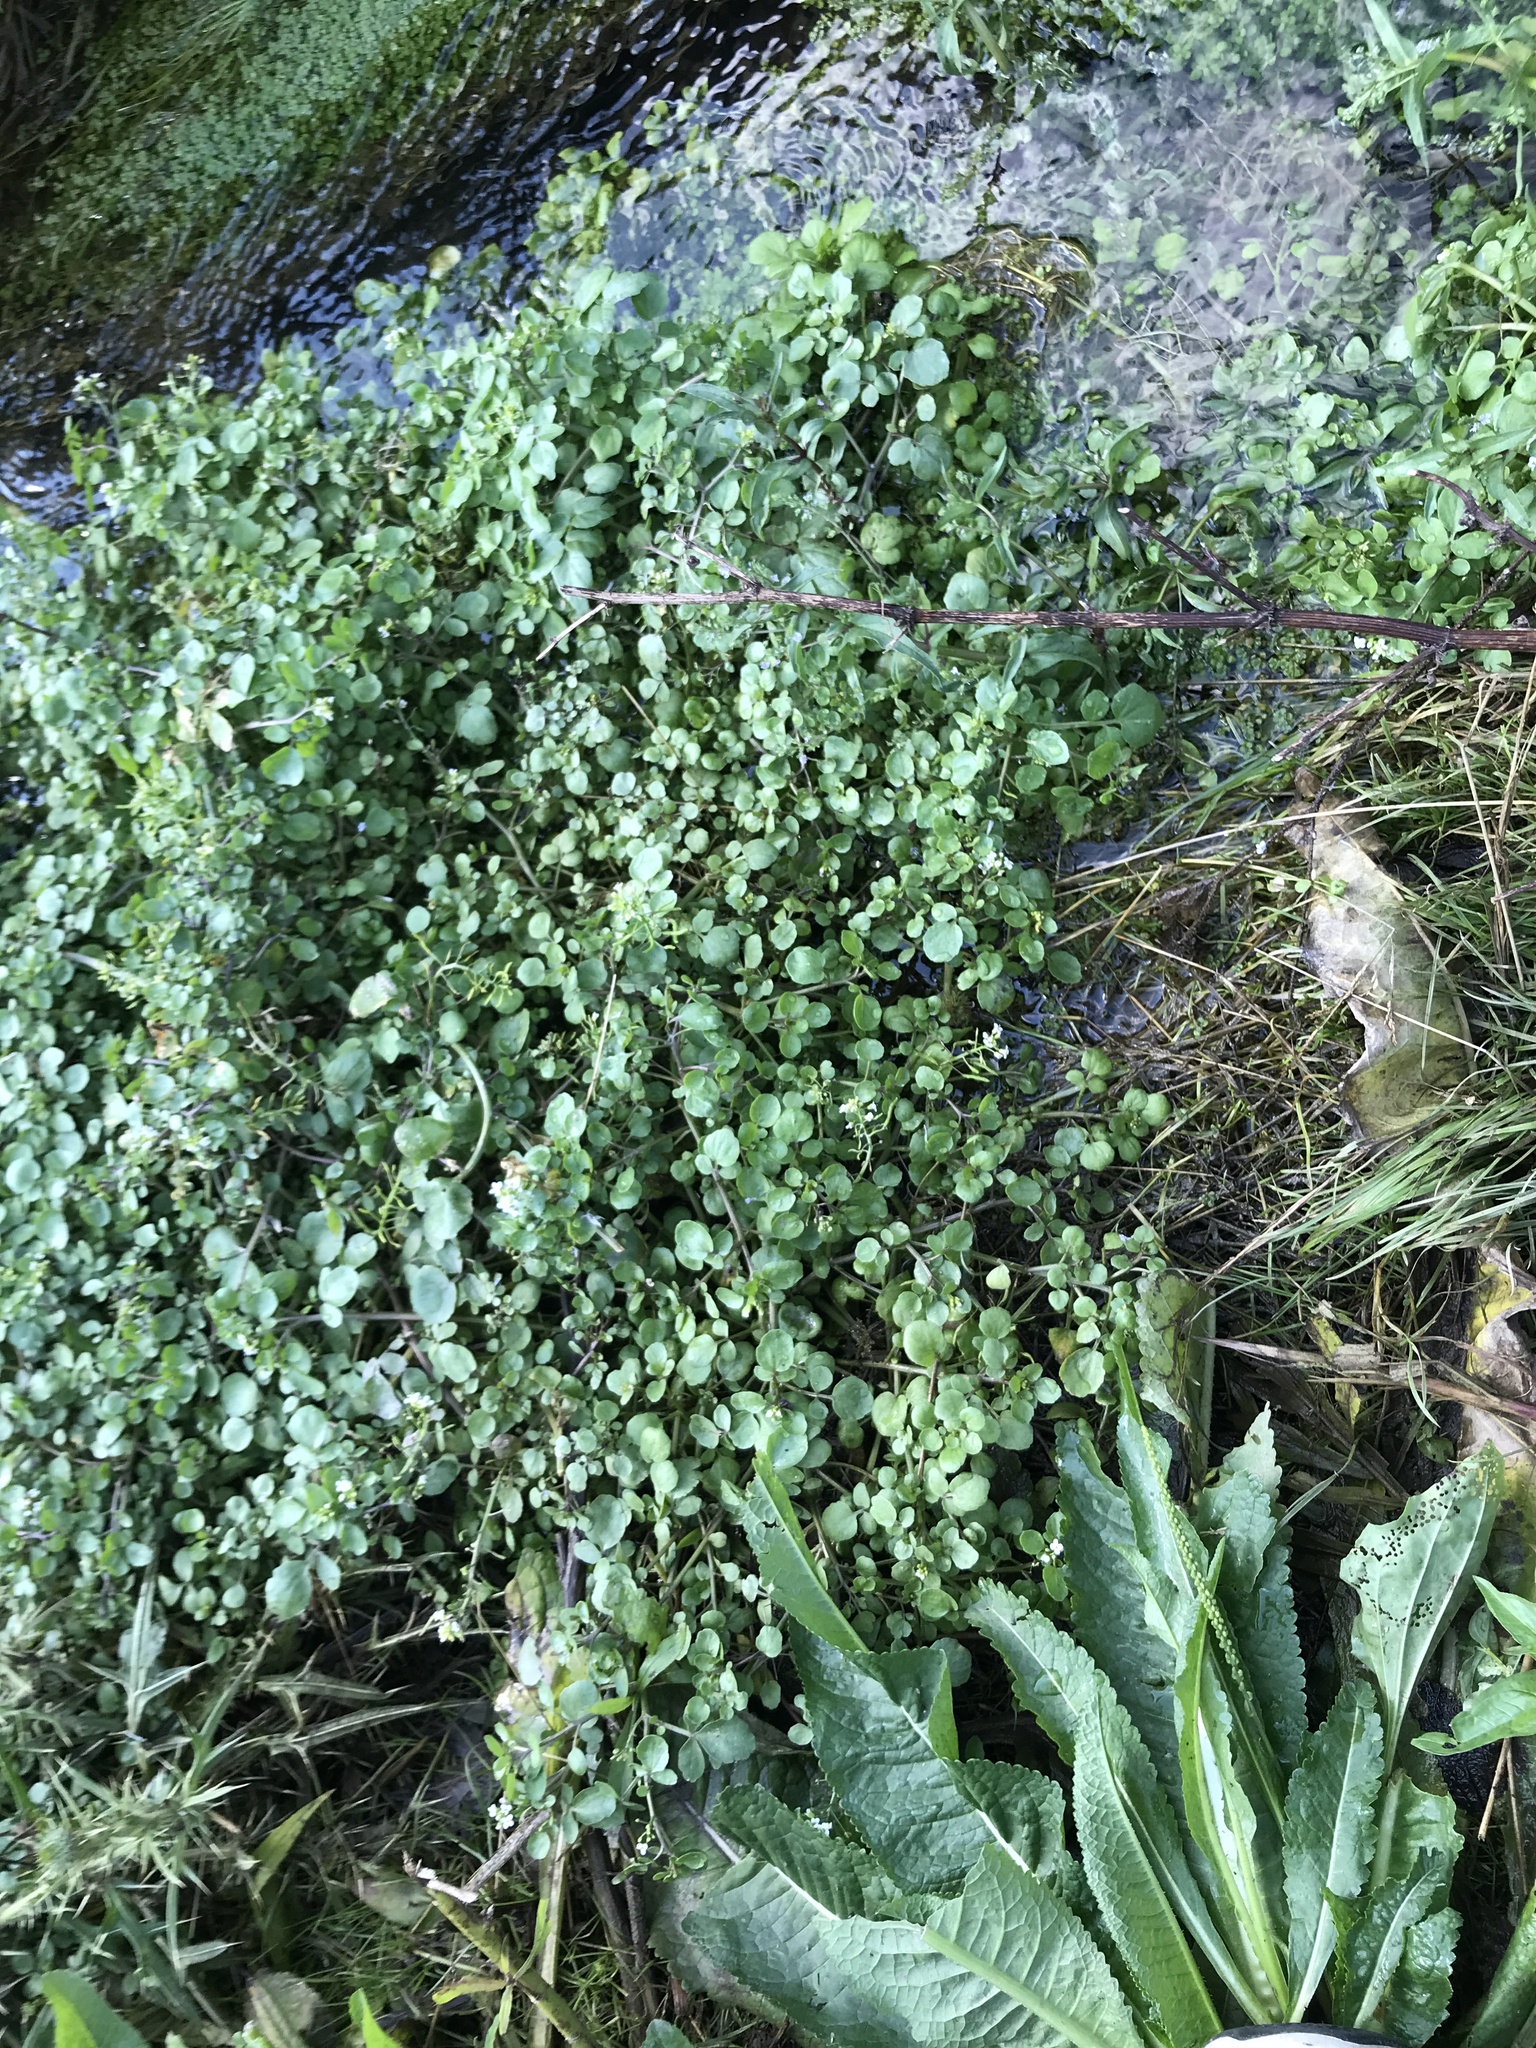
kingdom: Plantae
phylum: Tracheophyta
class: Magnoliopsida
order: Brassicales
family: Brassicaceae
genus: Nasturtium
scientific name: Nasturtium officinale
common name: Watercress
